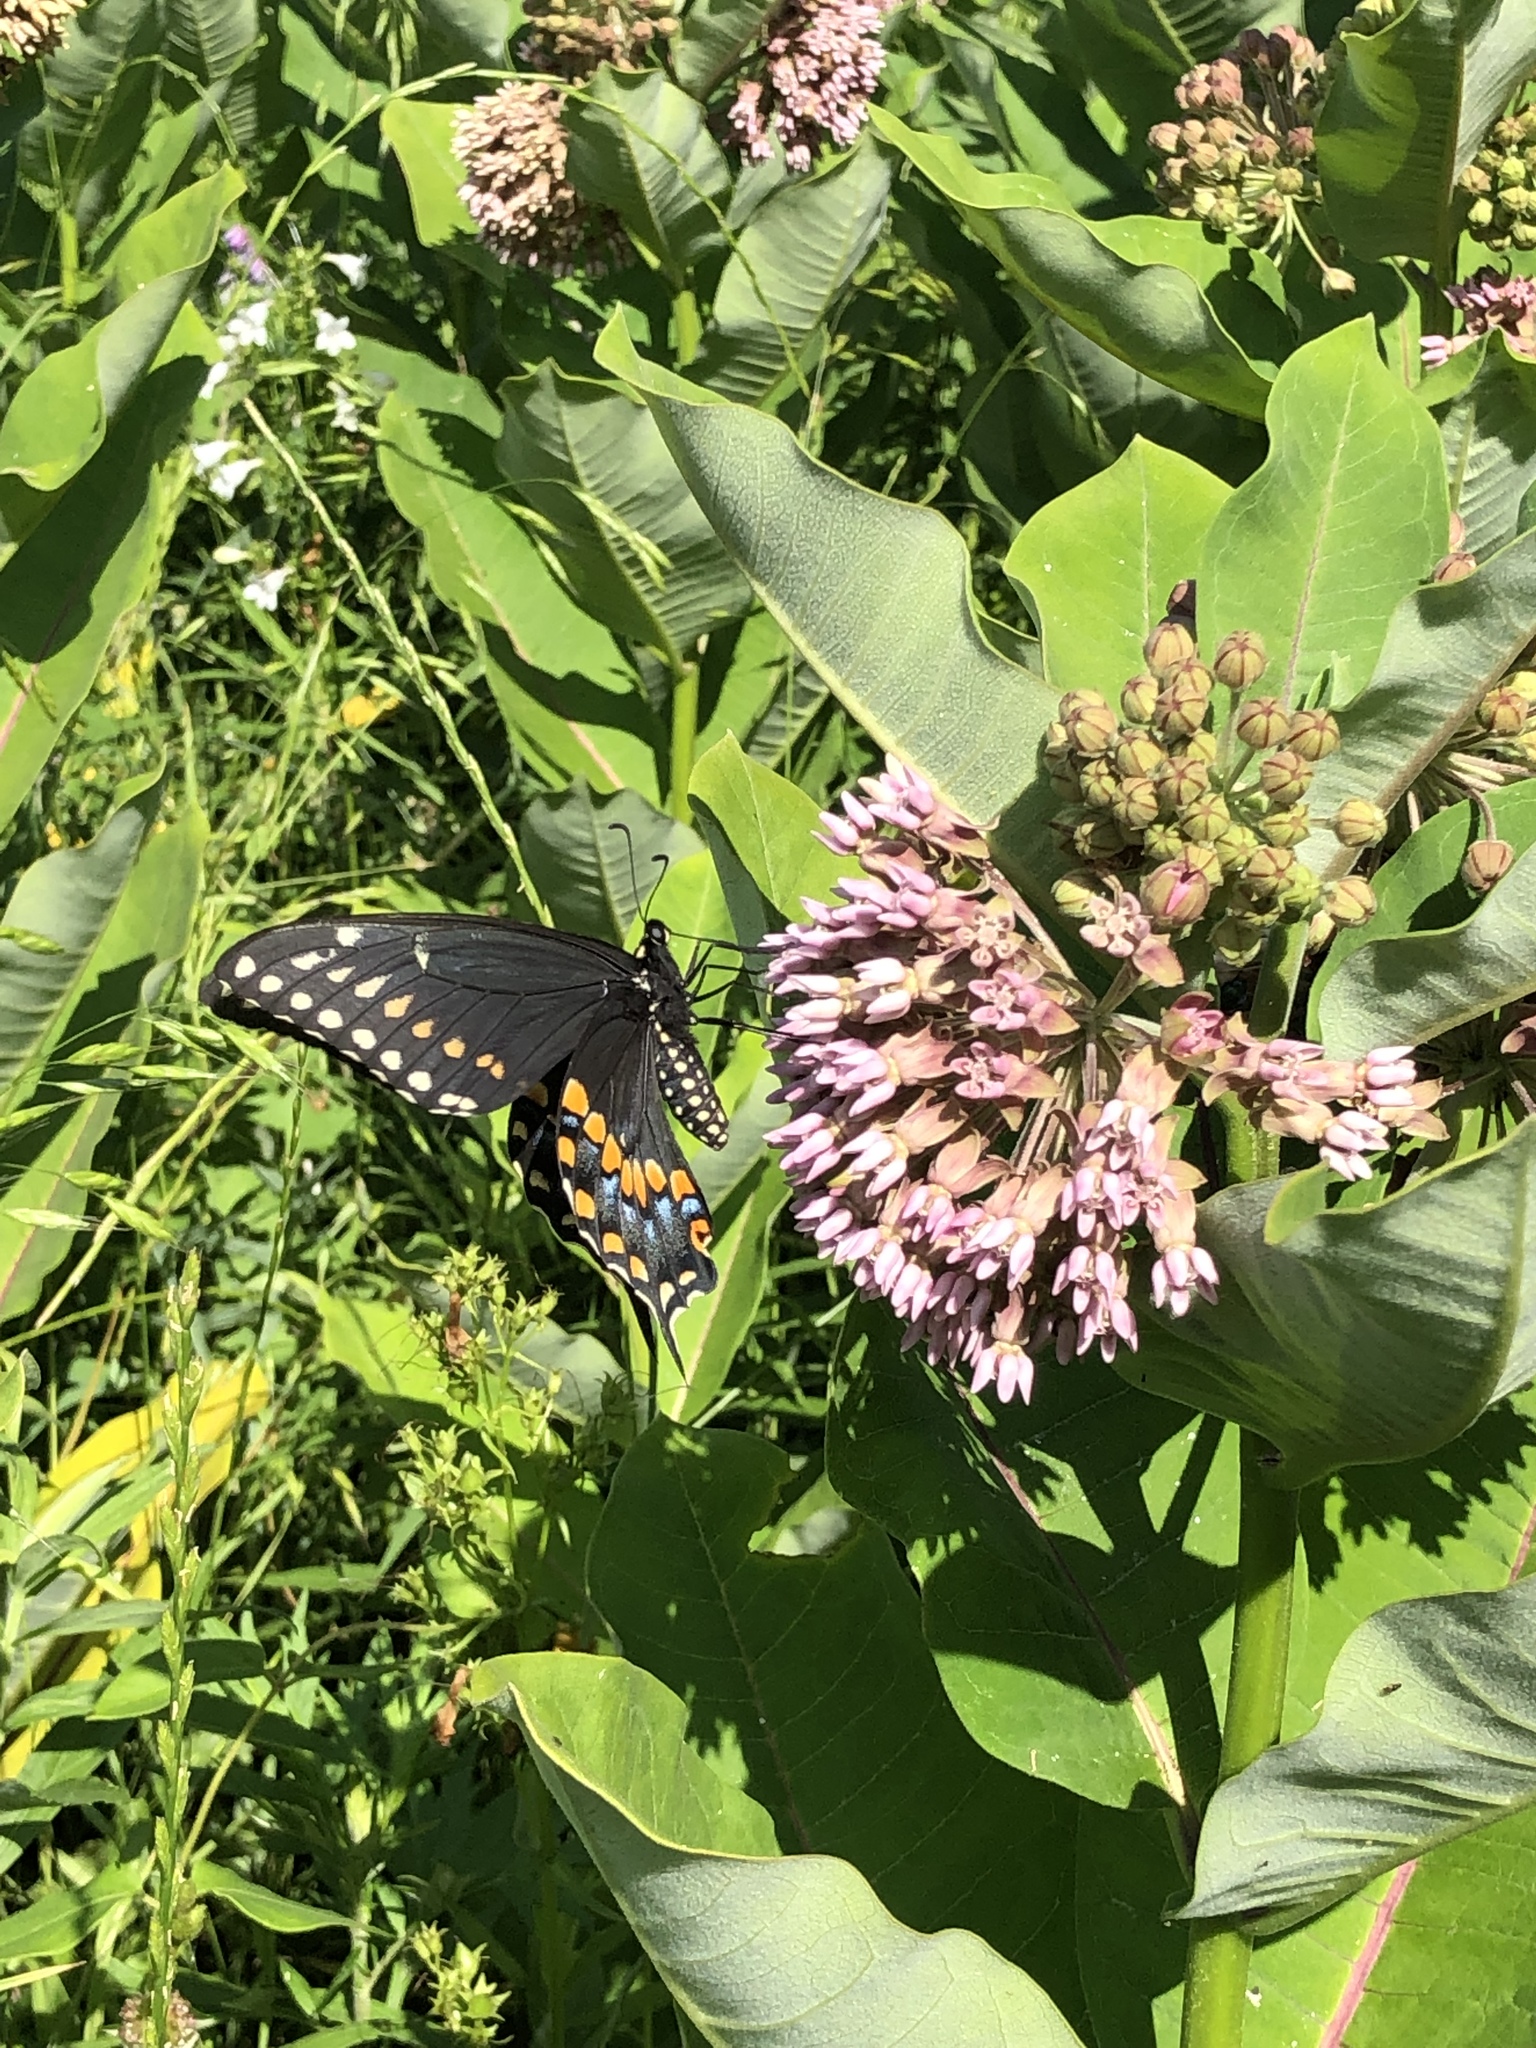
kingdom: Animalia
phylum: Arthropoda
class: Insecta
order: Lepidoptera
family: Papilionidae
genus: Papilio
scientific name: Papilio polyxenes
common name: Black swallowtail
